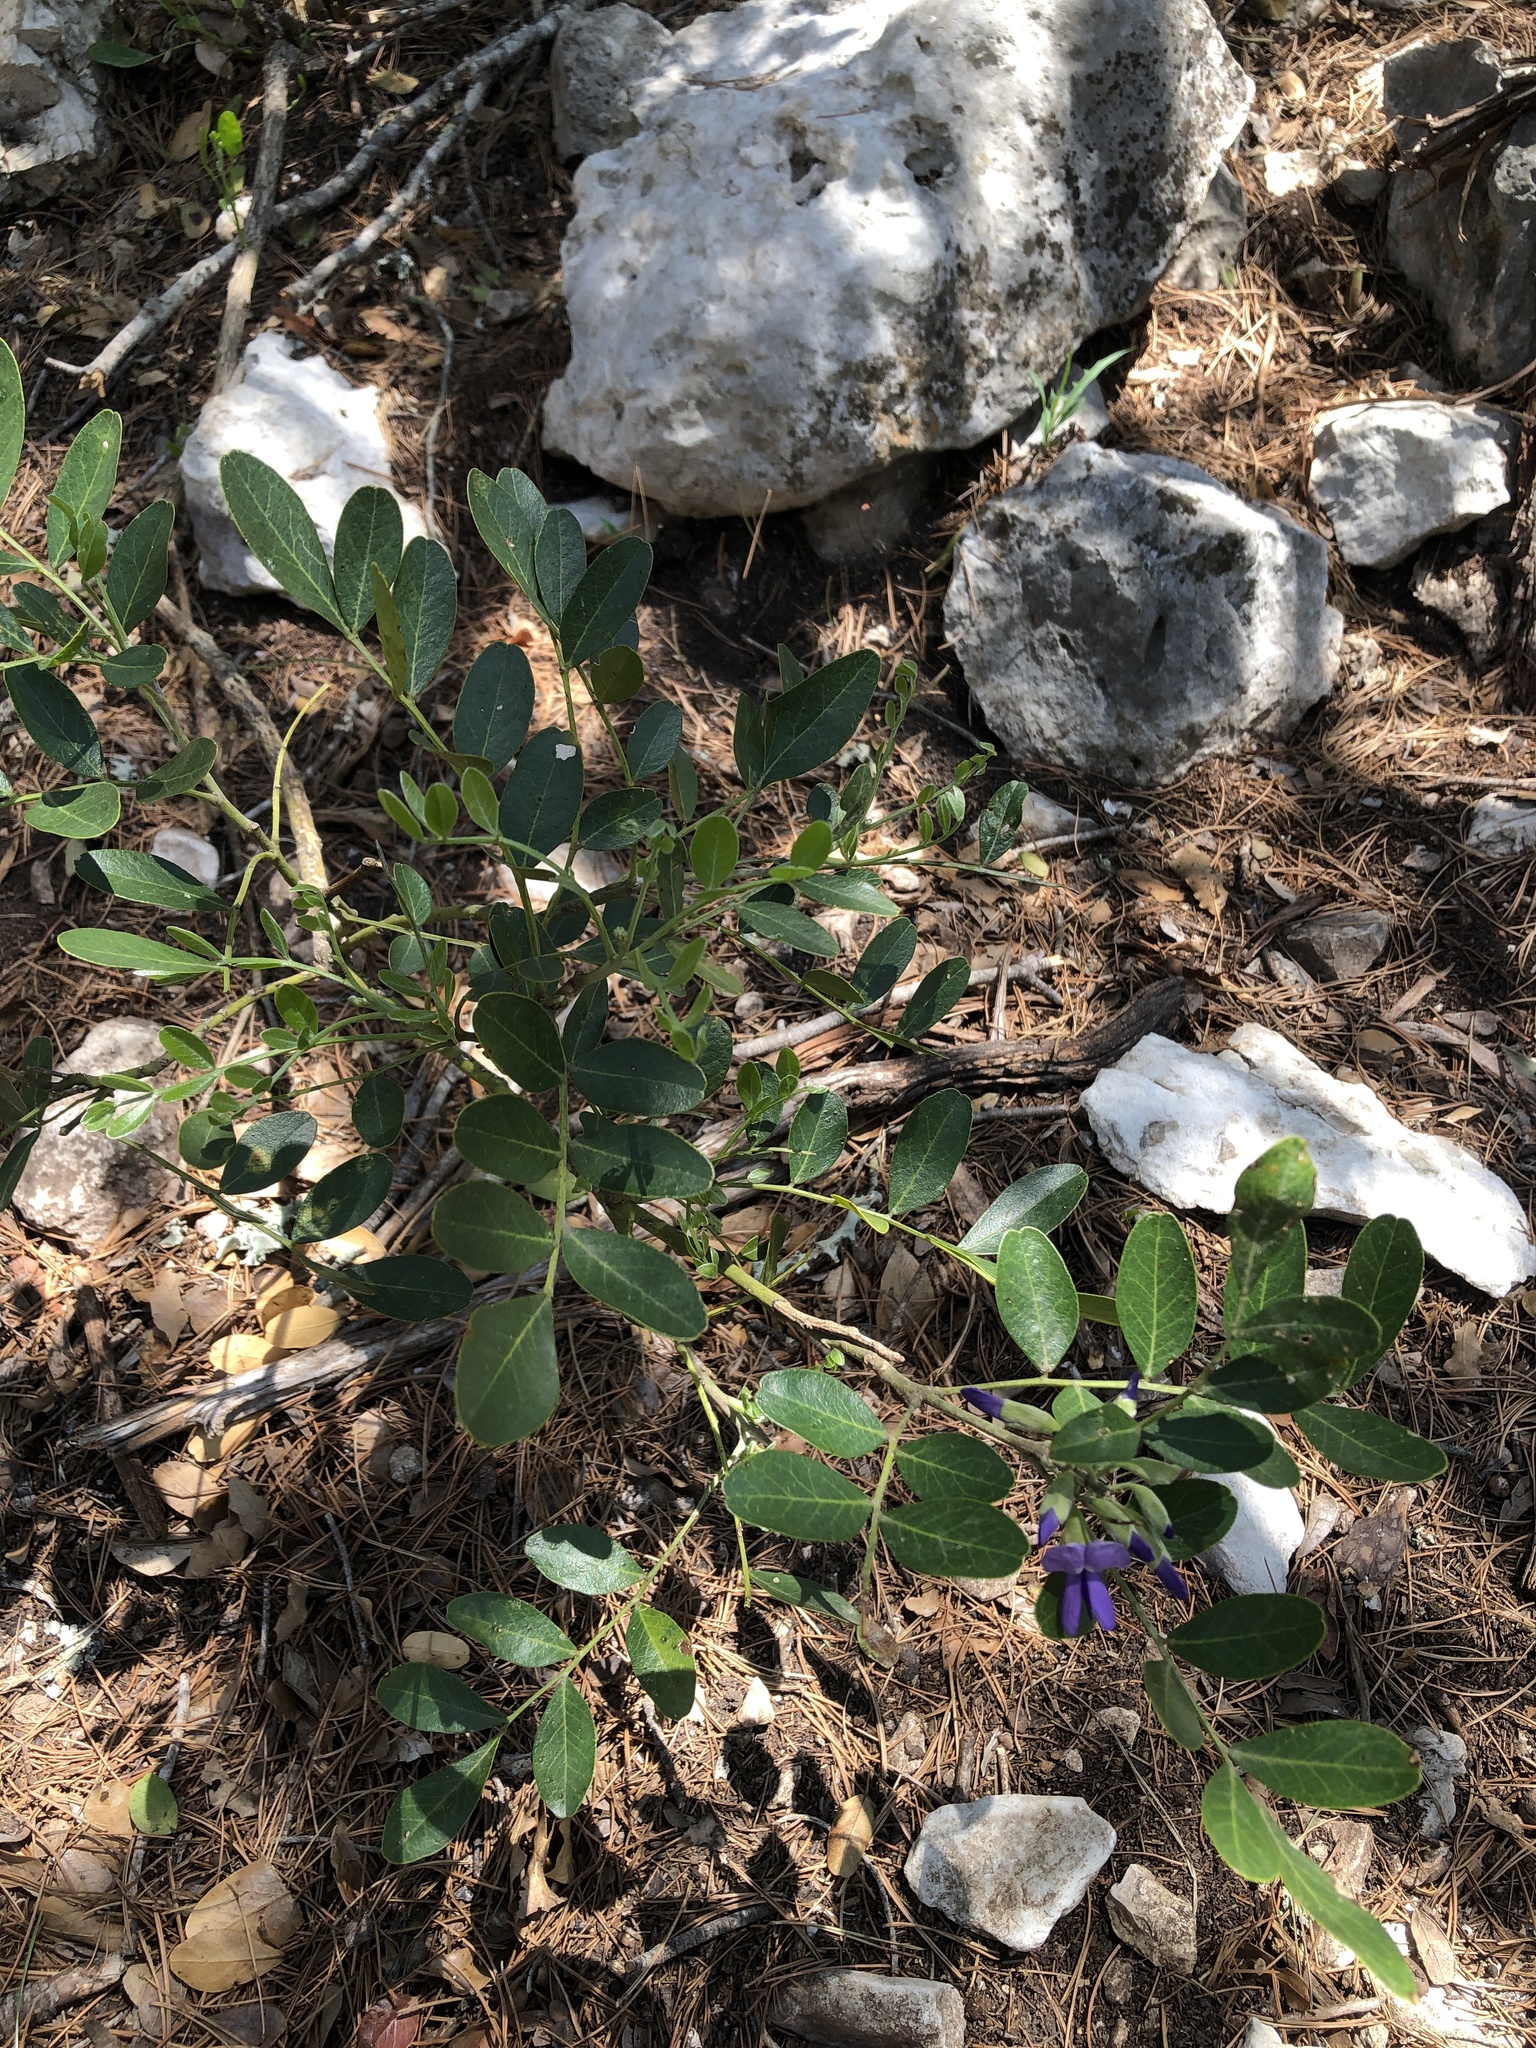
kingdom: Plantae
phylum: Tracheophyta
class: Magnoliopsida
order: Fabales
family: Fabaceae
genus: Dermatophyllum
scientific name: Dermatophyllum secundiflorum
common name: Texas-mountain-laurel
